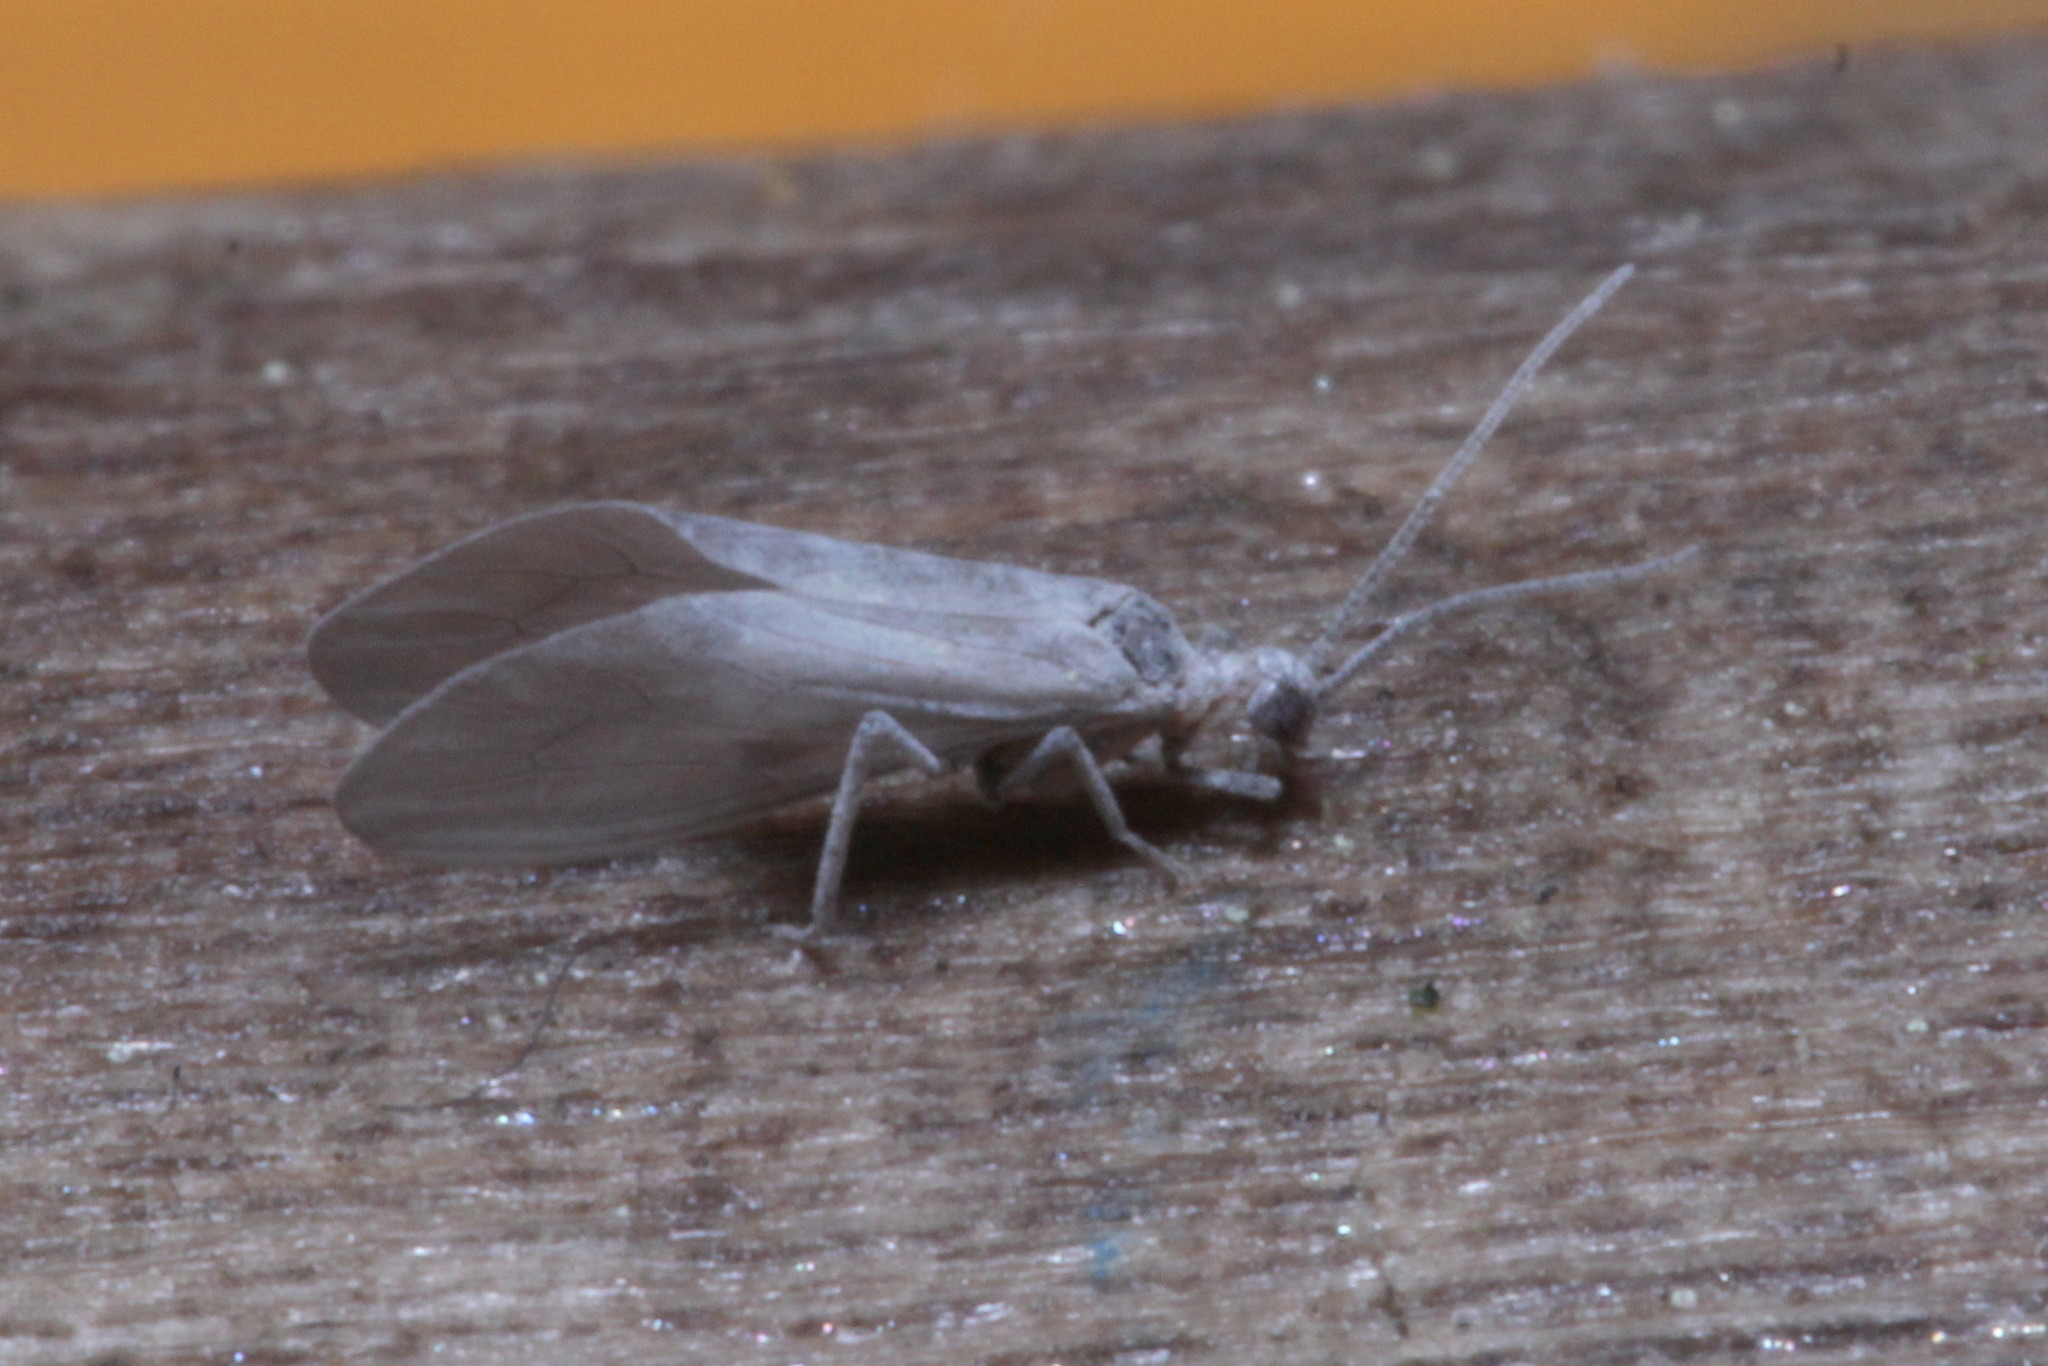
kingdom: Animalia
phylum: Arthropoda
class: Insecta
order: Neuroptera
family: Coniopterygidae
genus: Conwentzia
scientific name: Conwentzia pineticola
